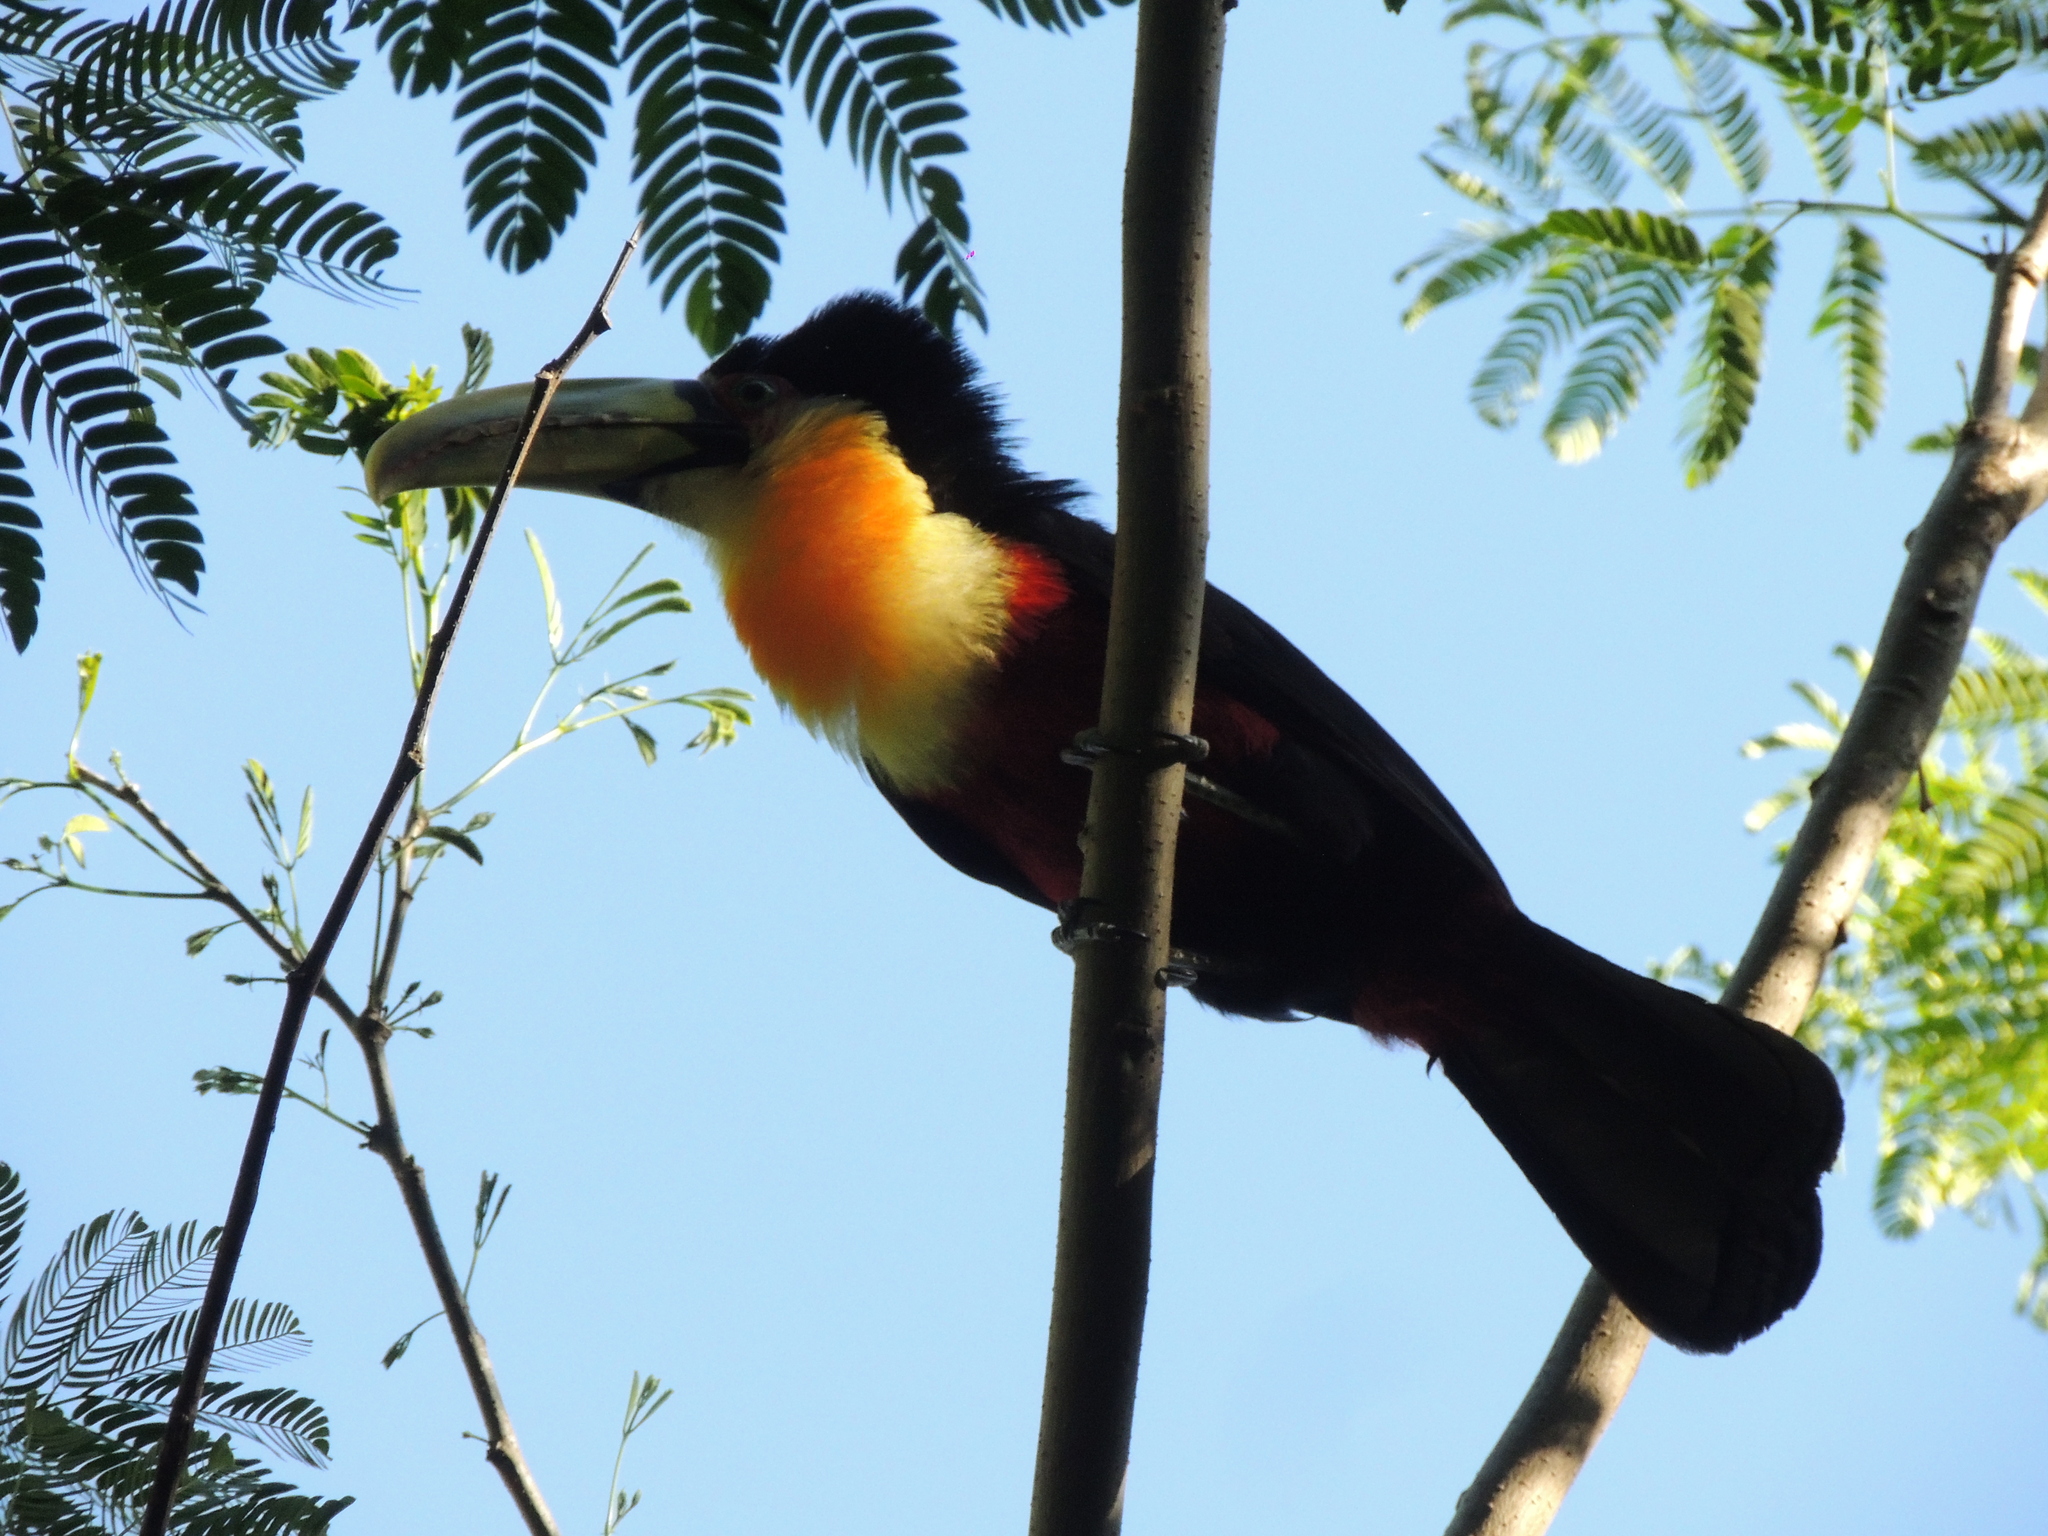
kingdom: Animalia
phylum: Chordata
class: Aves
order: Piciformes
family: Ramphastidae
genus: Ramphastos
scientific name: Ramphastos dicolorus
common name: Green-billed toucan
